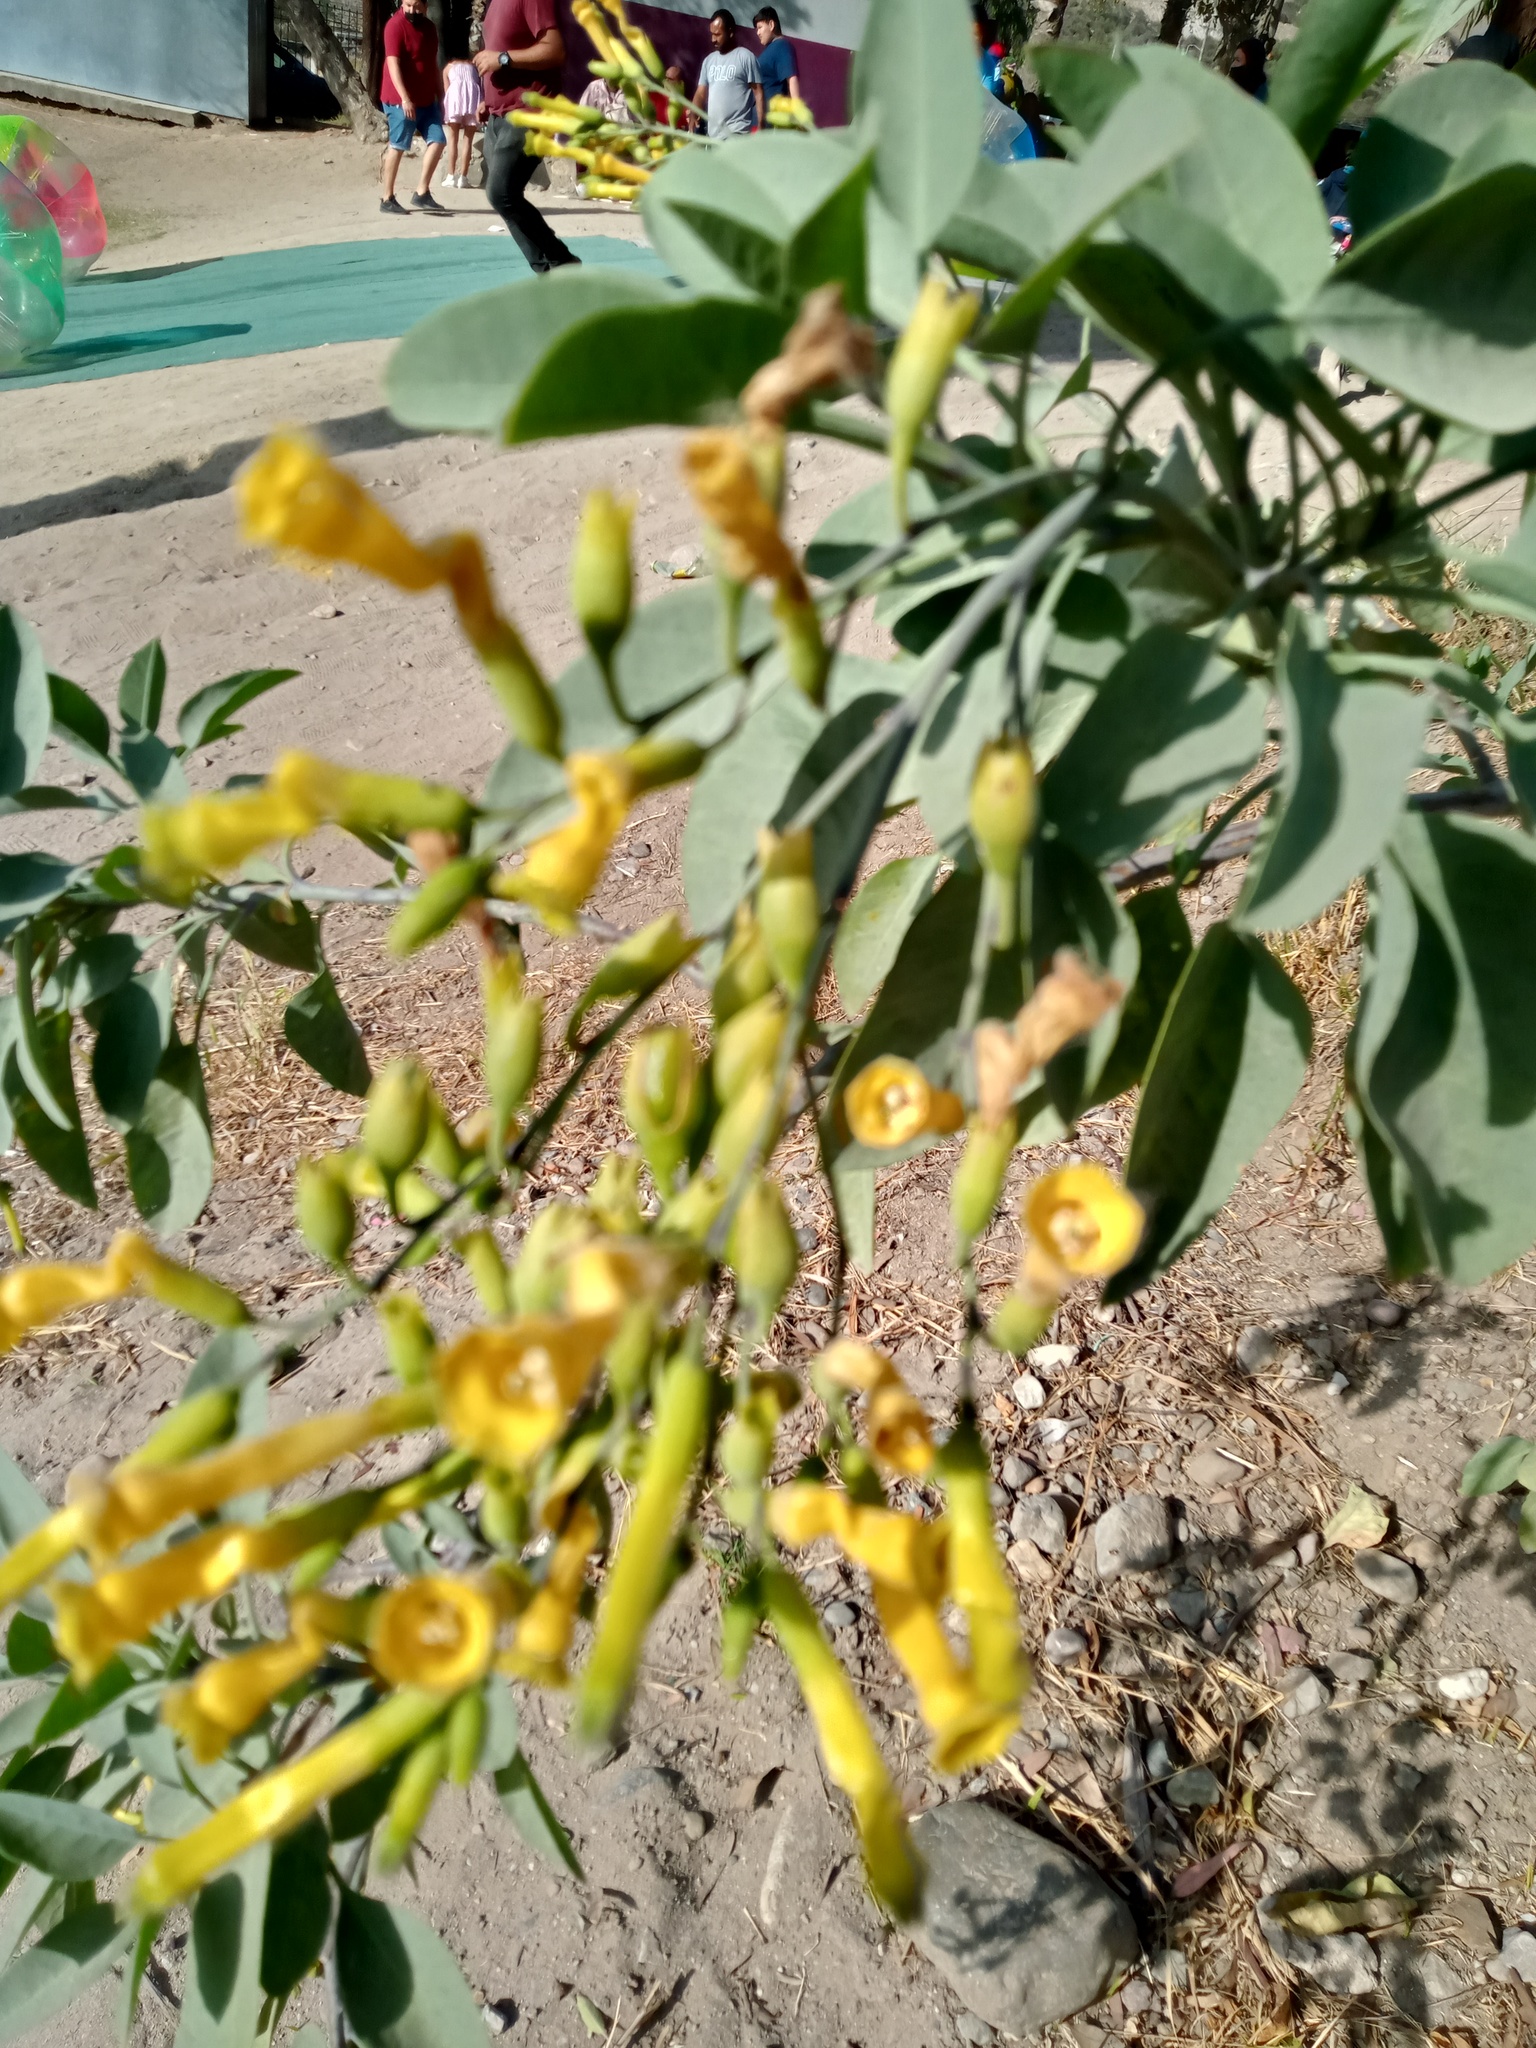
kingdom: Plantae
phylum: Tracheophyta
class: Magnoliopsida
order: Solanales
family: Solanaceae
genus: Nicotiana
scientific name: Nicotiana glauca
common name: Tree tobacco
